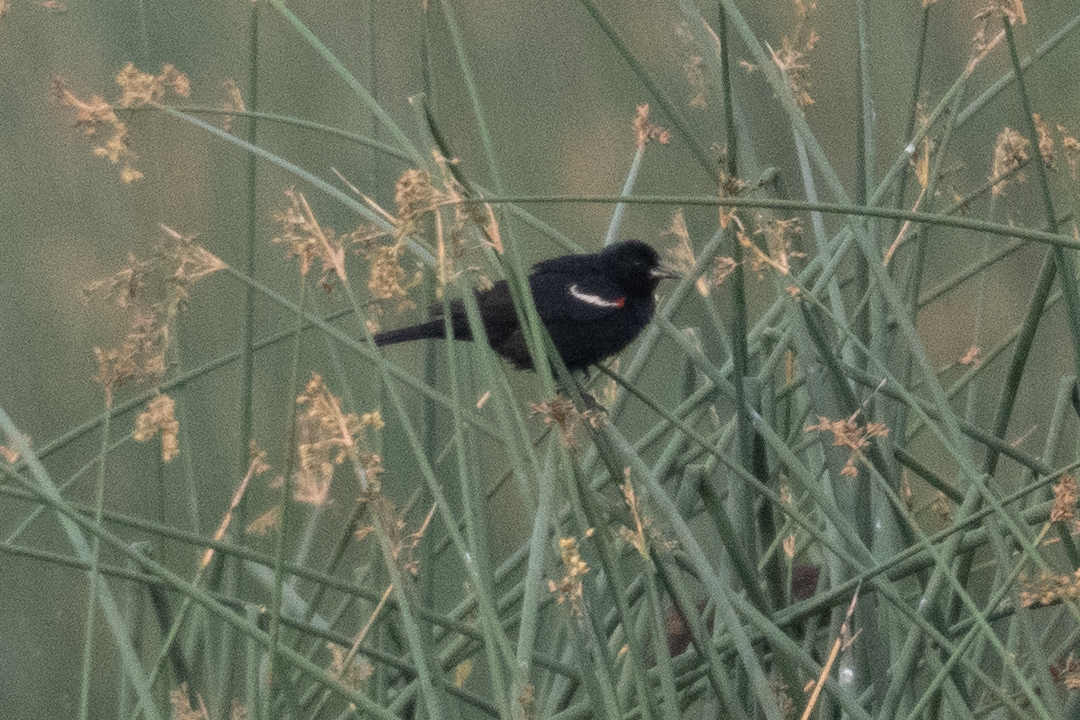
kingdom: Animalia
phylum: Chordata
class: Aves
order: Passeriformes
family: Icteridae
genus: Agelaius
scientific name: Agelaius tricolor
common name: Tricolored blackbird
